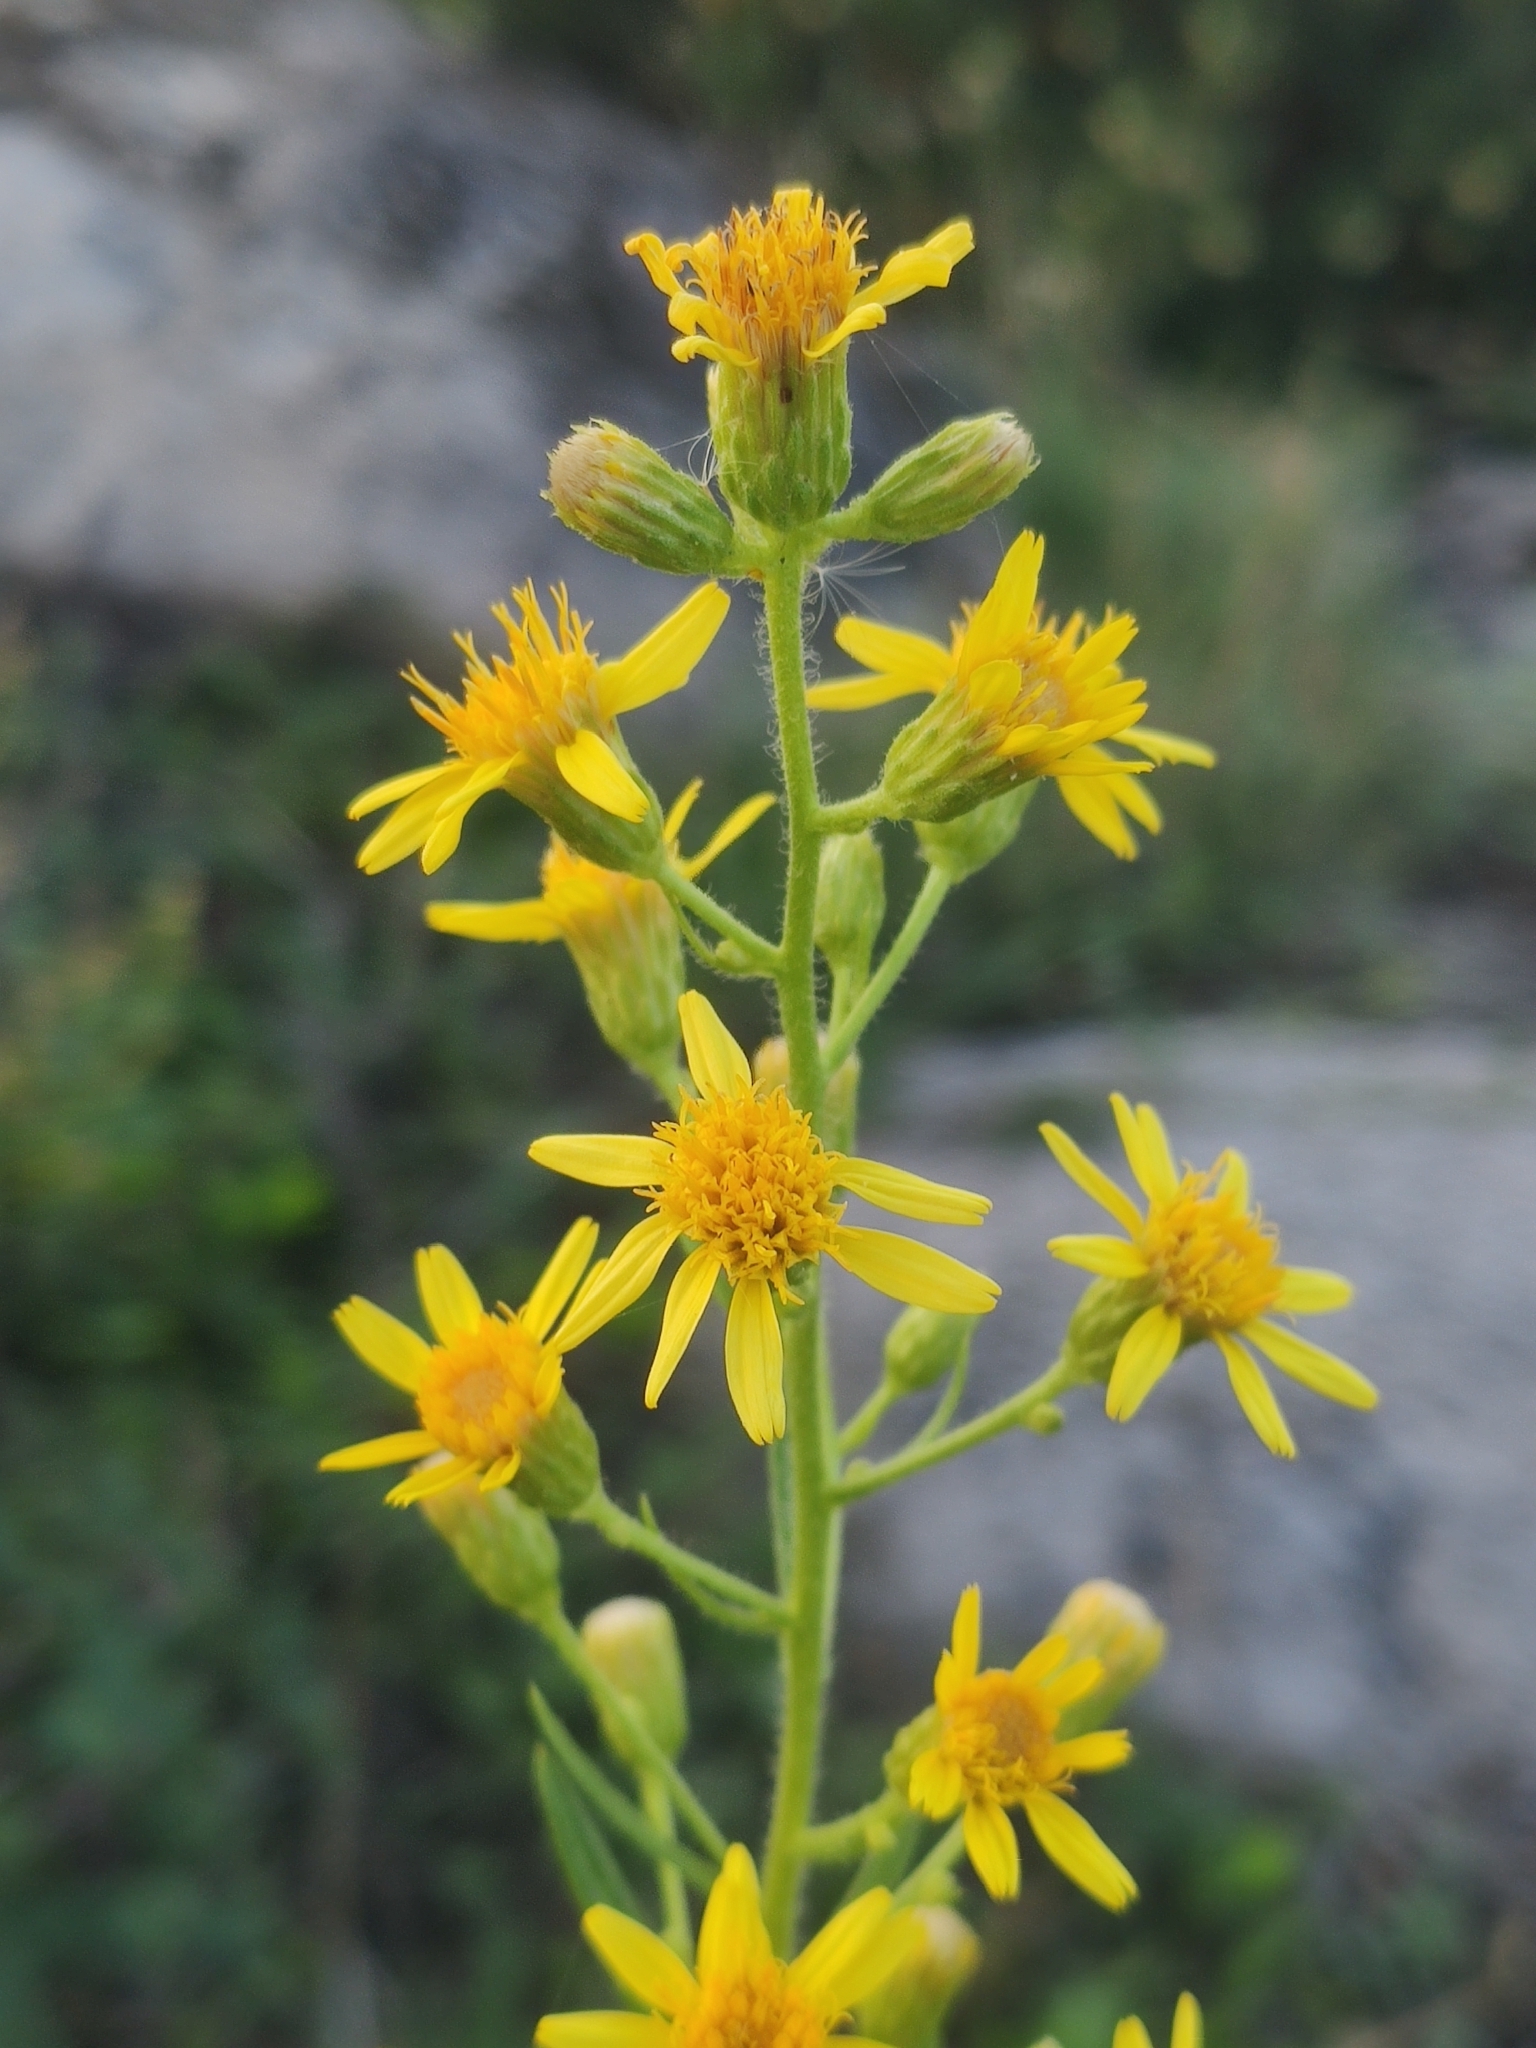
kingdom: Plantae
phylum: Tracheophyta
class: Magnoliopsida
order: Asterales
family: Asteraceae
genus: Dittrichia
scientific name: Dittrichia viscosa
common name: Woody fleabane
